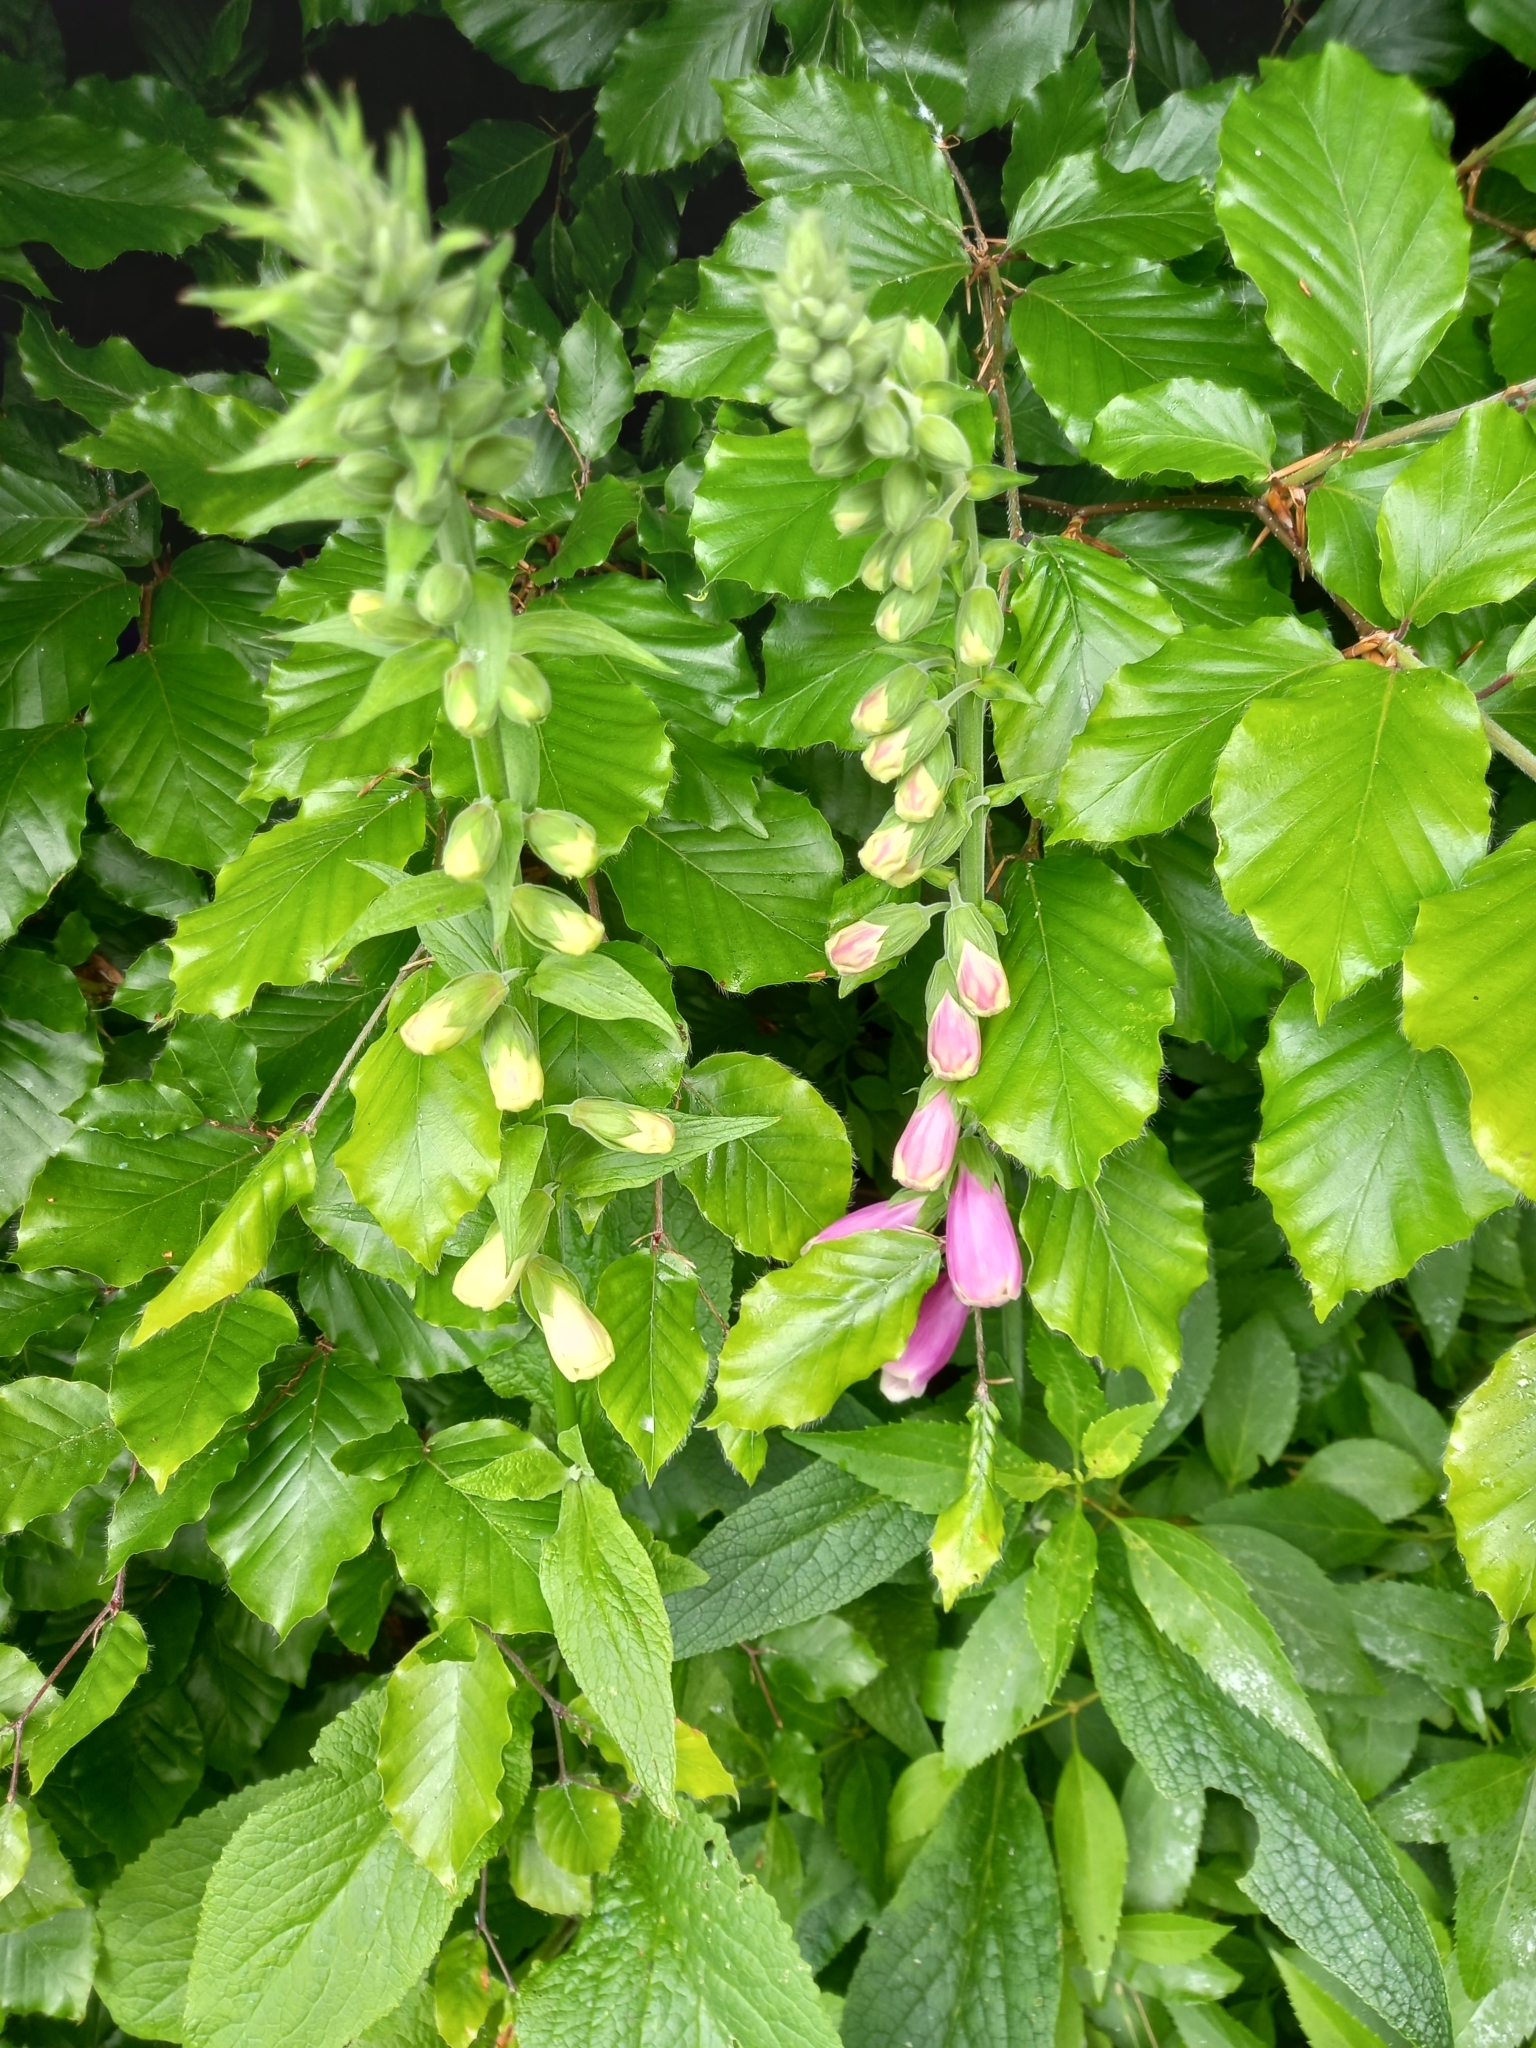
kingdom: Plantae
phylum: Tracheophyta
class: Magnoliopsida
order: Lamiales
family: Plantaginaceae
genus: Digitalis
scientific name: Digitalis purpurea
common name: Foxglove
